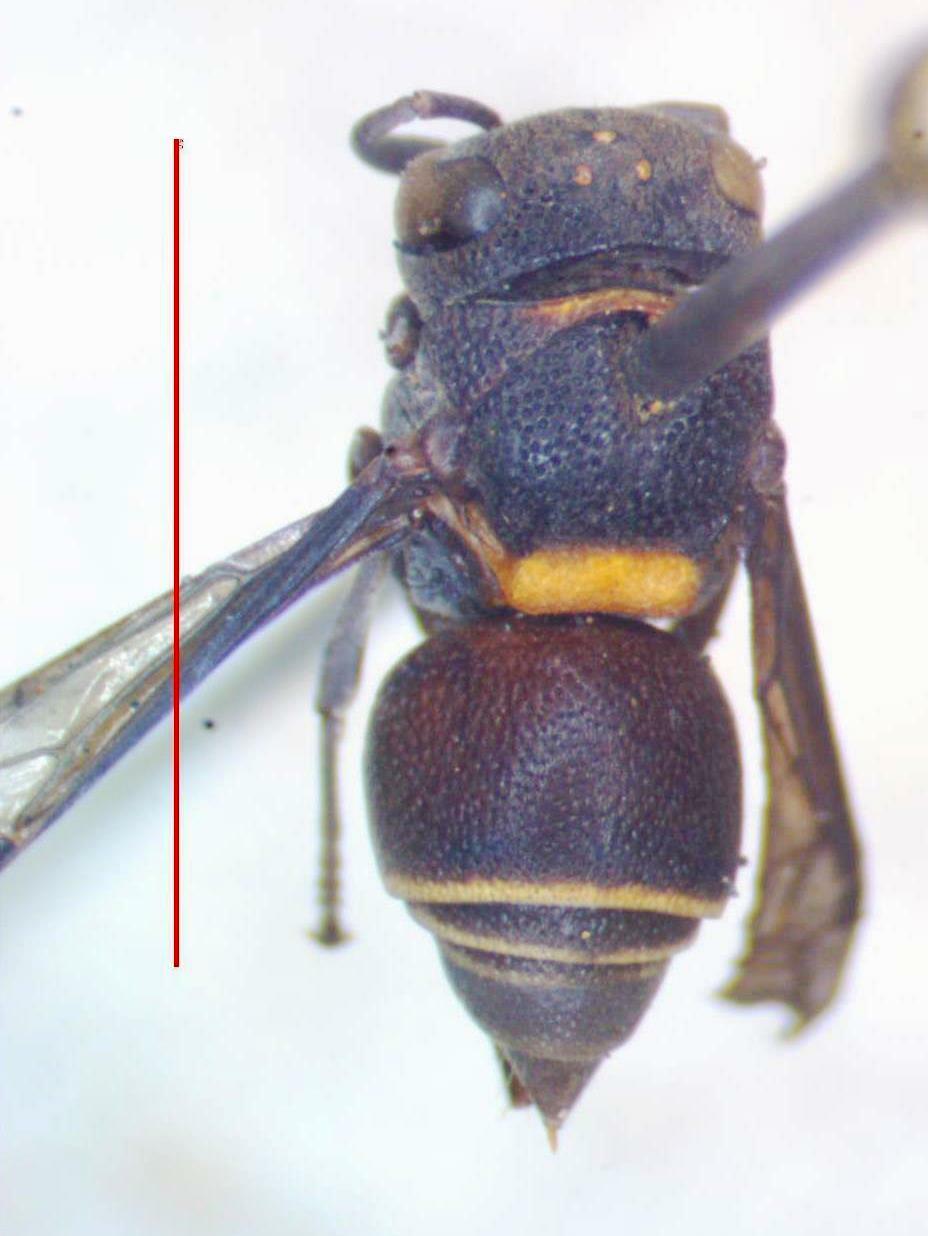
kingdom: Animalia
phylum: Arthropoda
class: Insecta
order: Hymenoptera
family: Vespidae
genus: Brachygastra
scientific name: Brachygastra scutellaris
